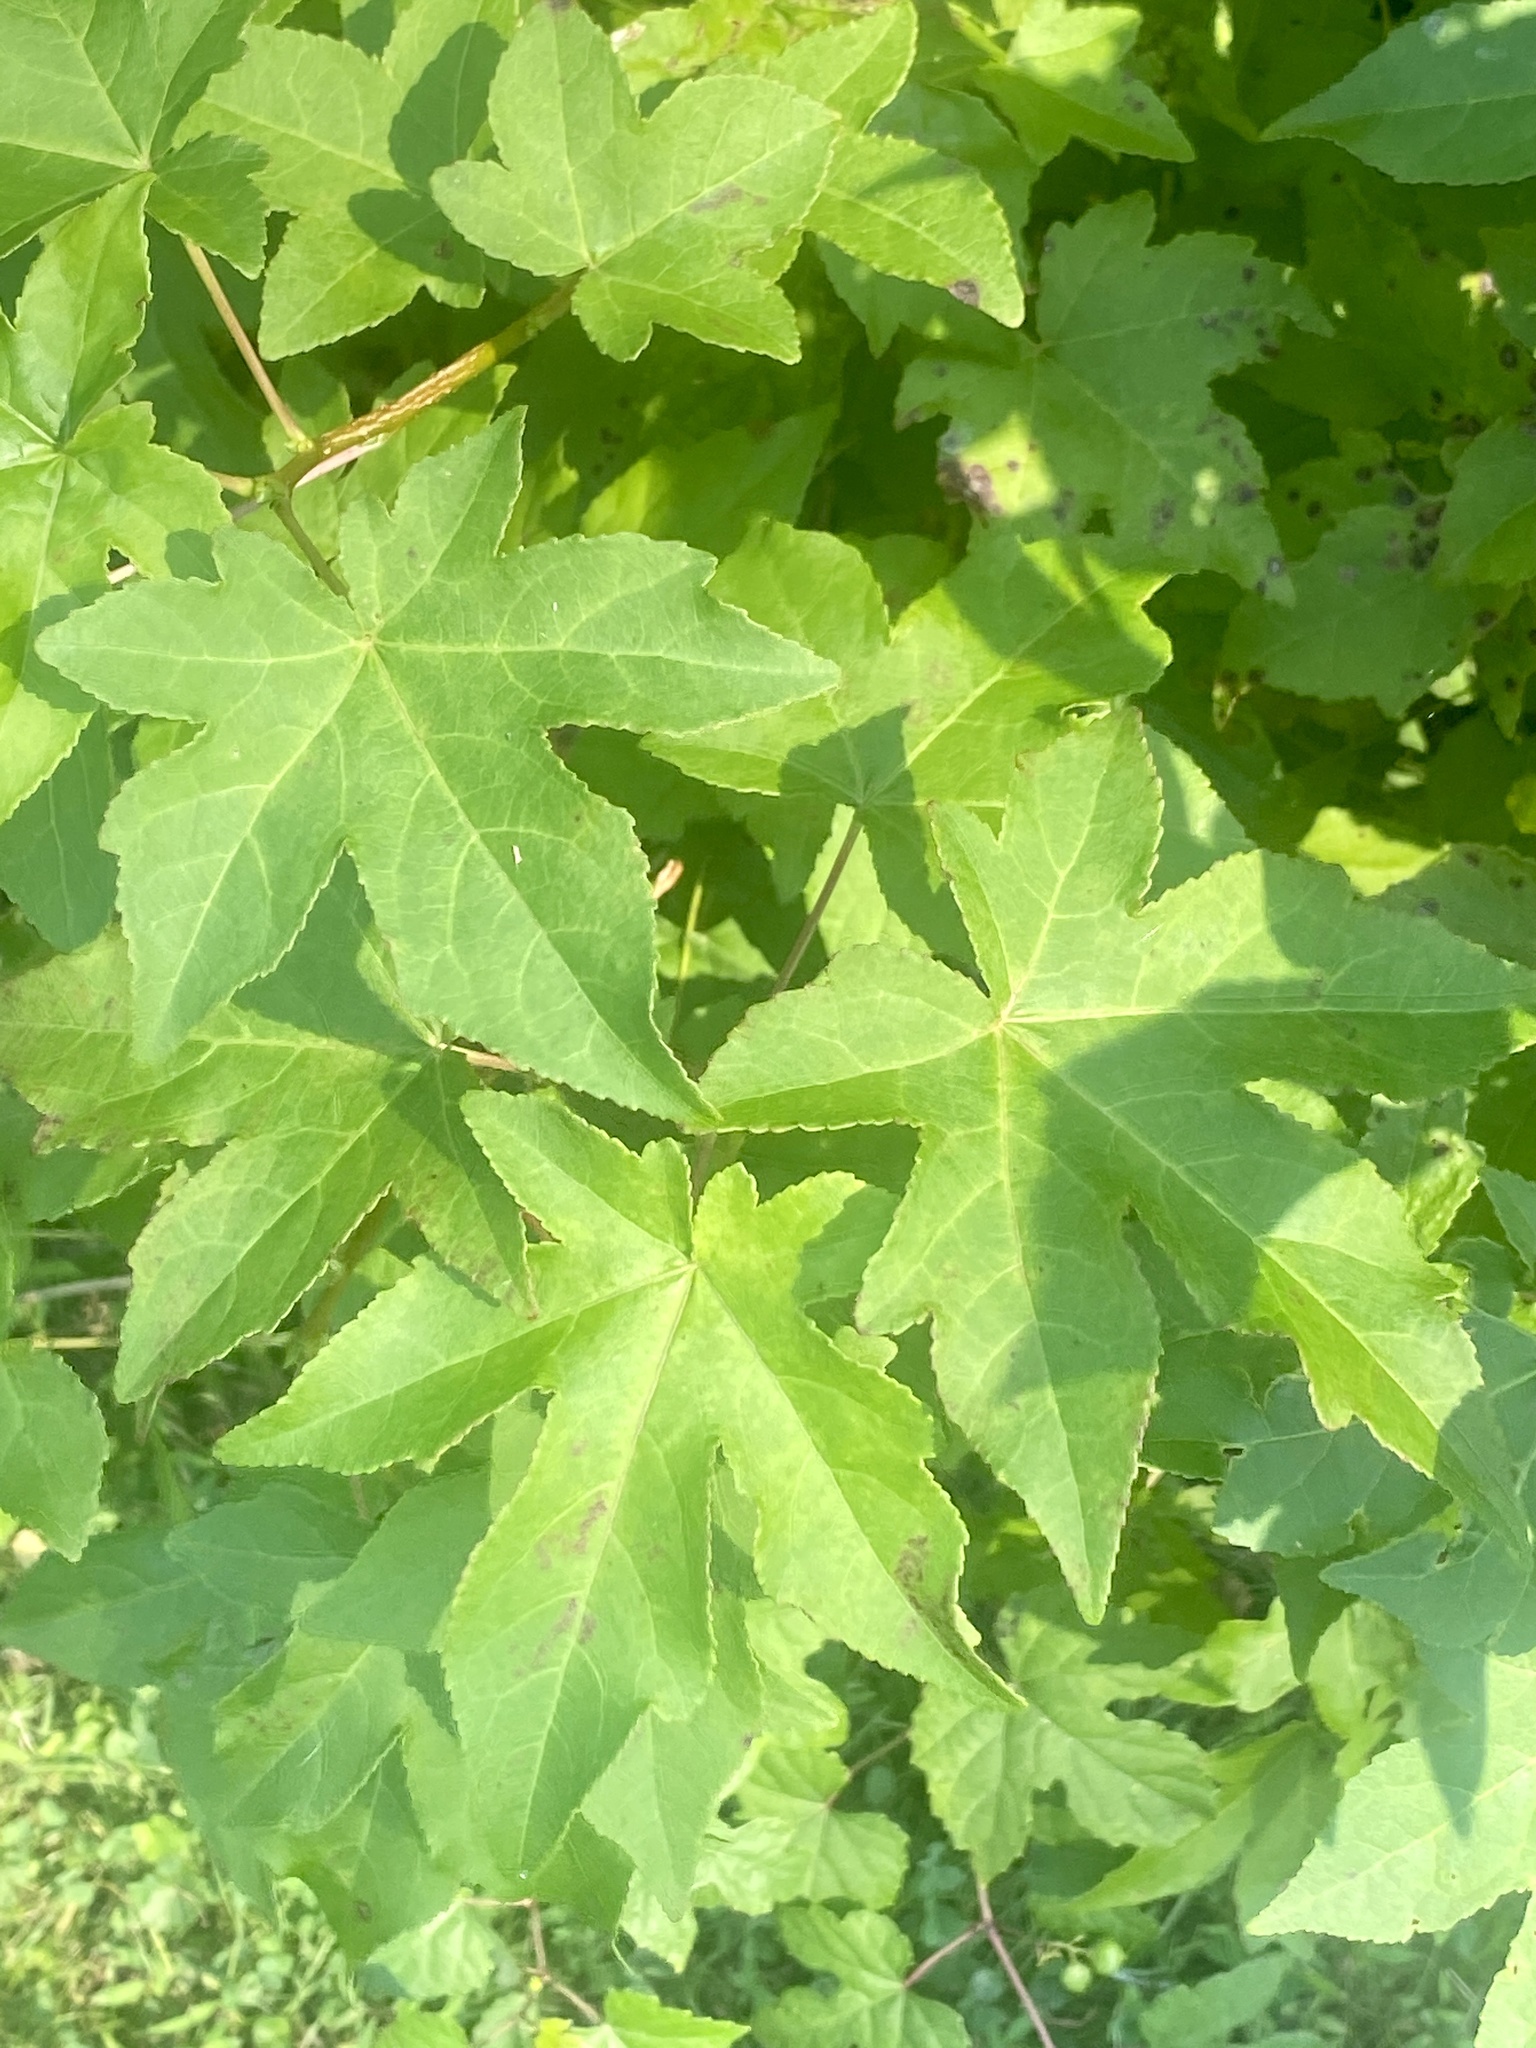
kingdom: Plantae
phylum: Tracheophyta
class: Magnoliopsida
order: Saxifragales
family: Altingiaceae
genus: Liquidambar
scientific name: Liquidambar styraciflua
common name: Sweet gum
